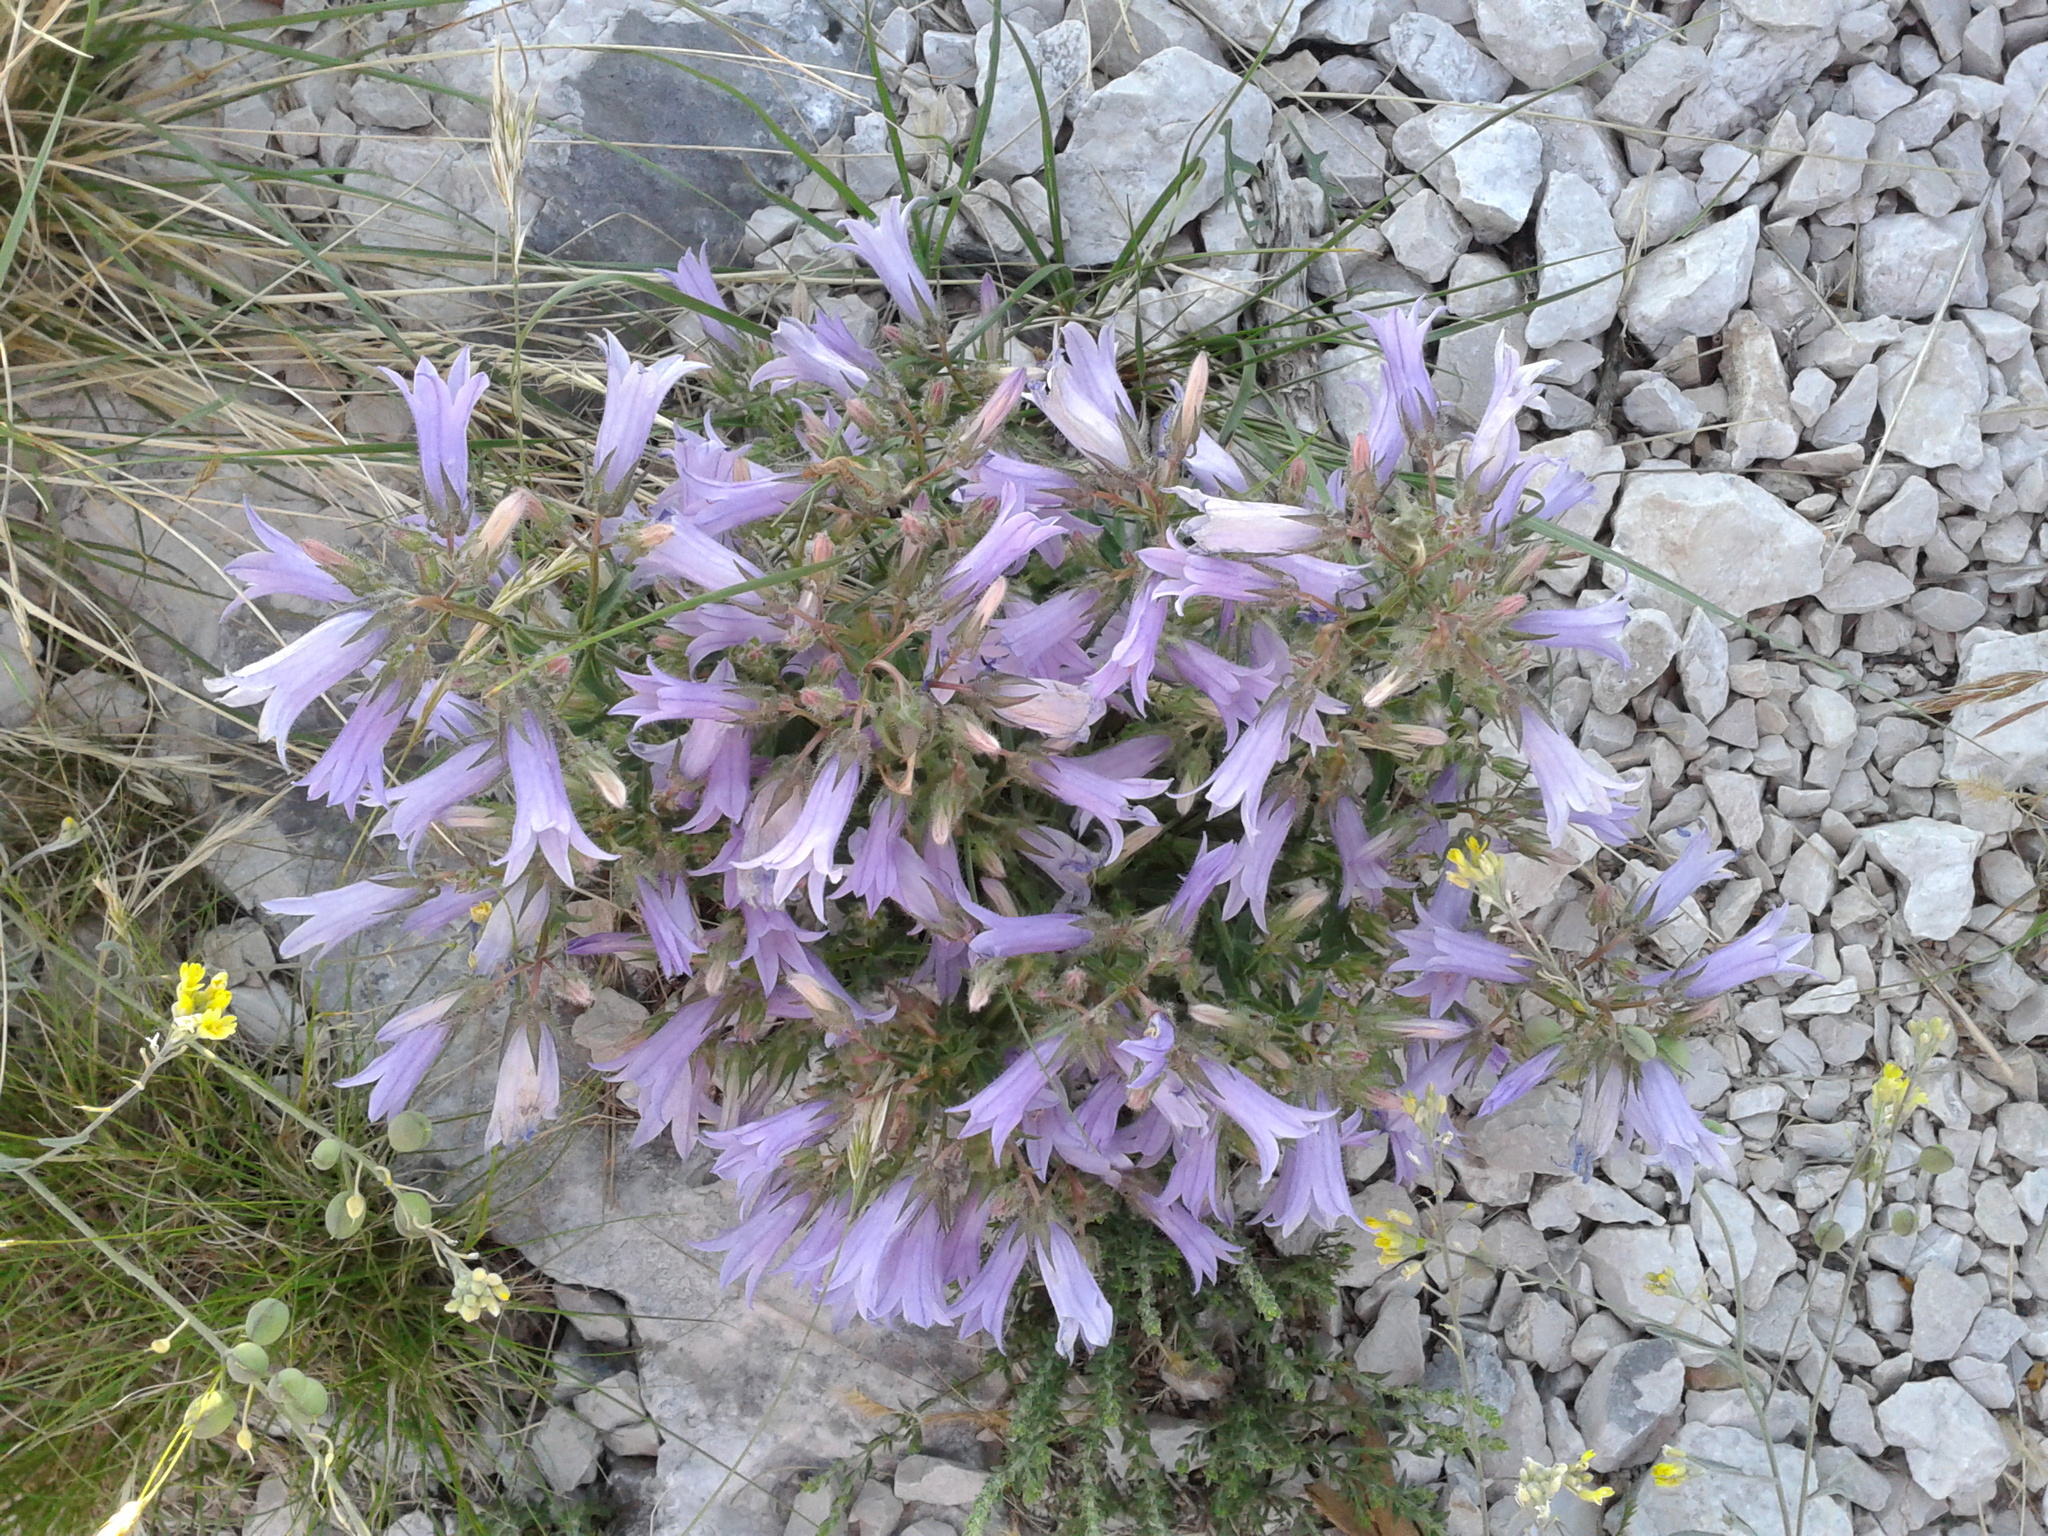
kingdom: Plantae
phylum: Tracheophyta
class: Magnoliopsida
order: Asterales
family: Campanulaceae
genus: Campanula
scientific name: Campanula lingulata
